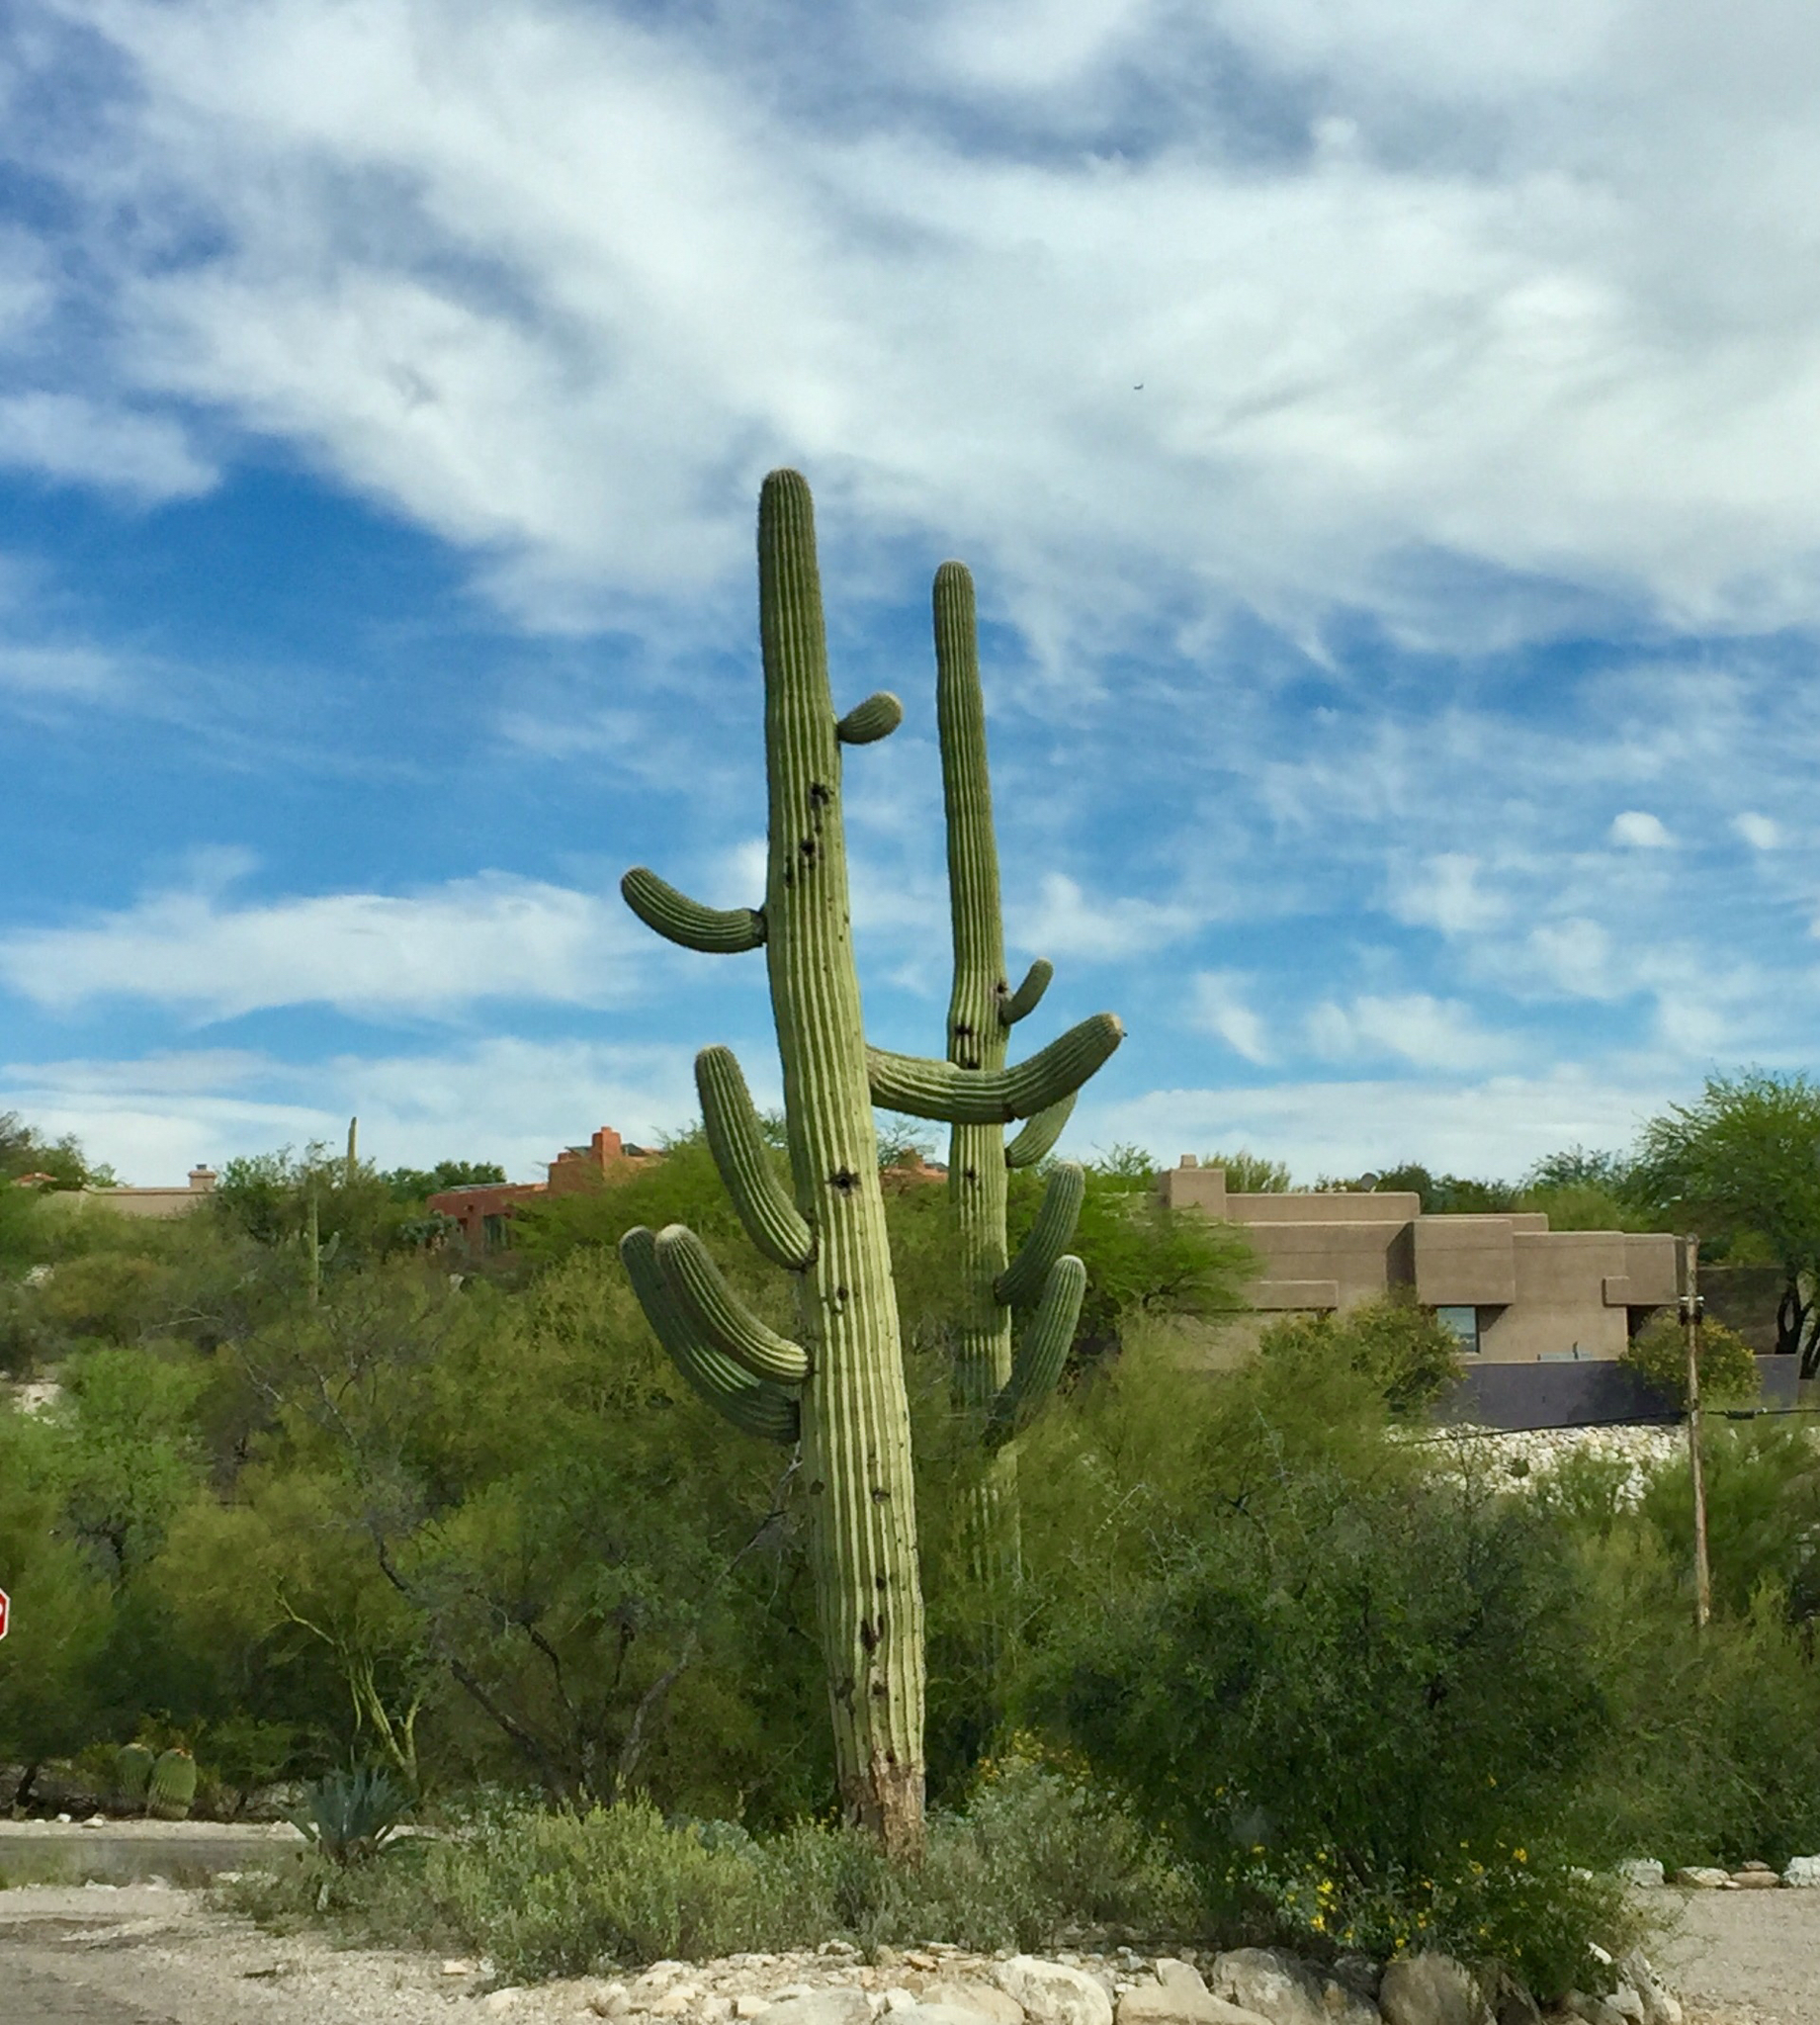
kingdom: Plantae
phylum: Tracheophyta
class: Magnoliopsida
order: Caryophyllales
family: Cactaceae
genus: Carnegiea
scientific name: Carnegiea gigantea
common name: Saguaro
